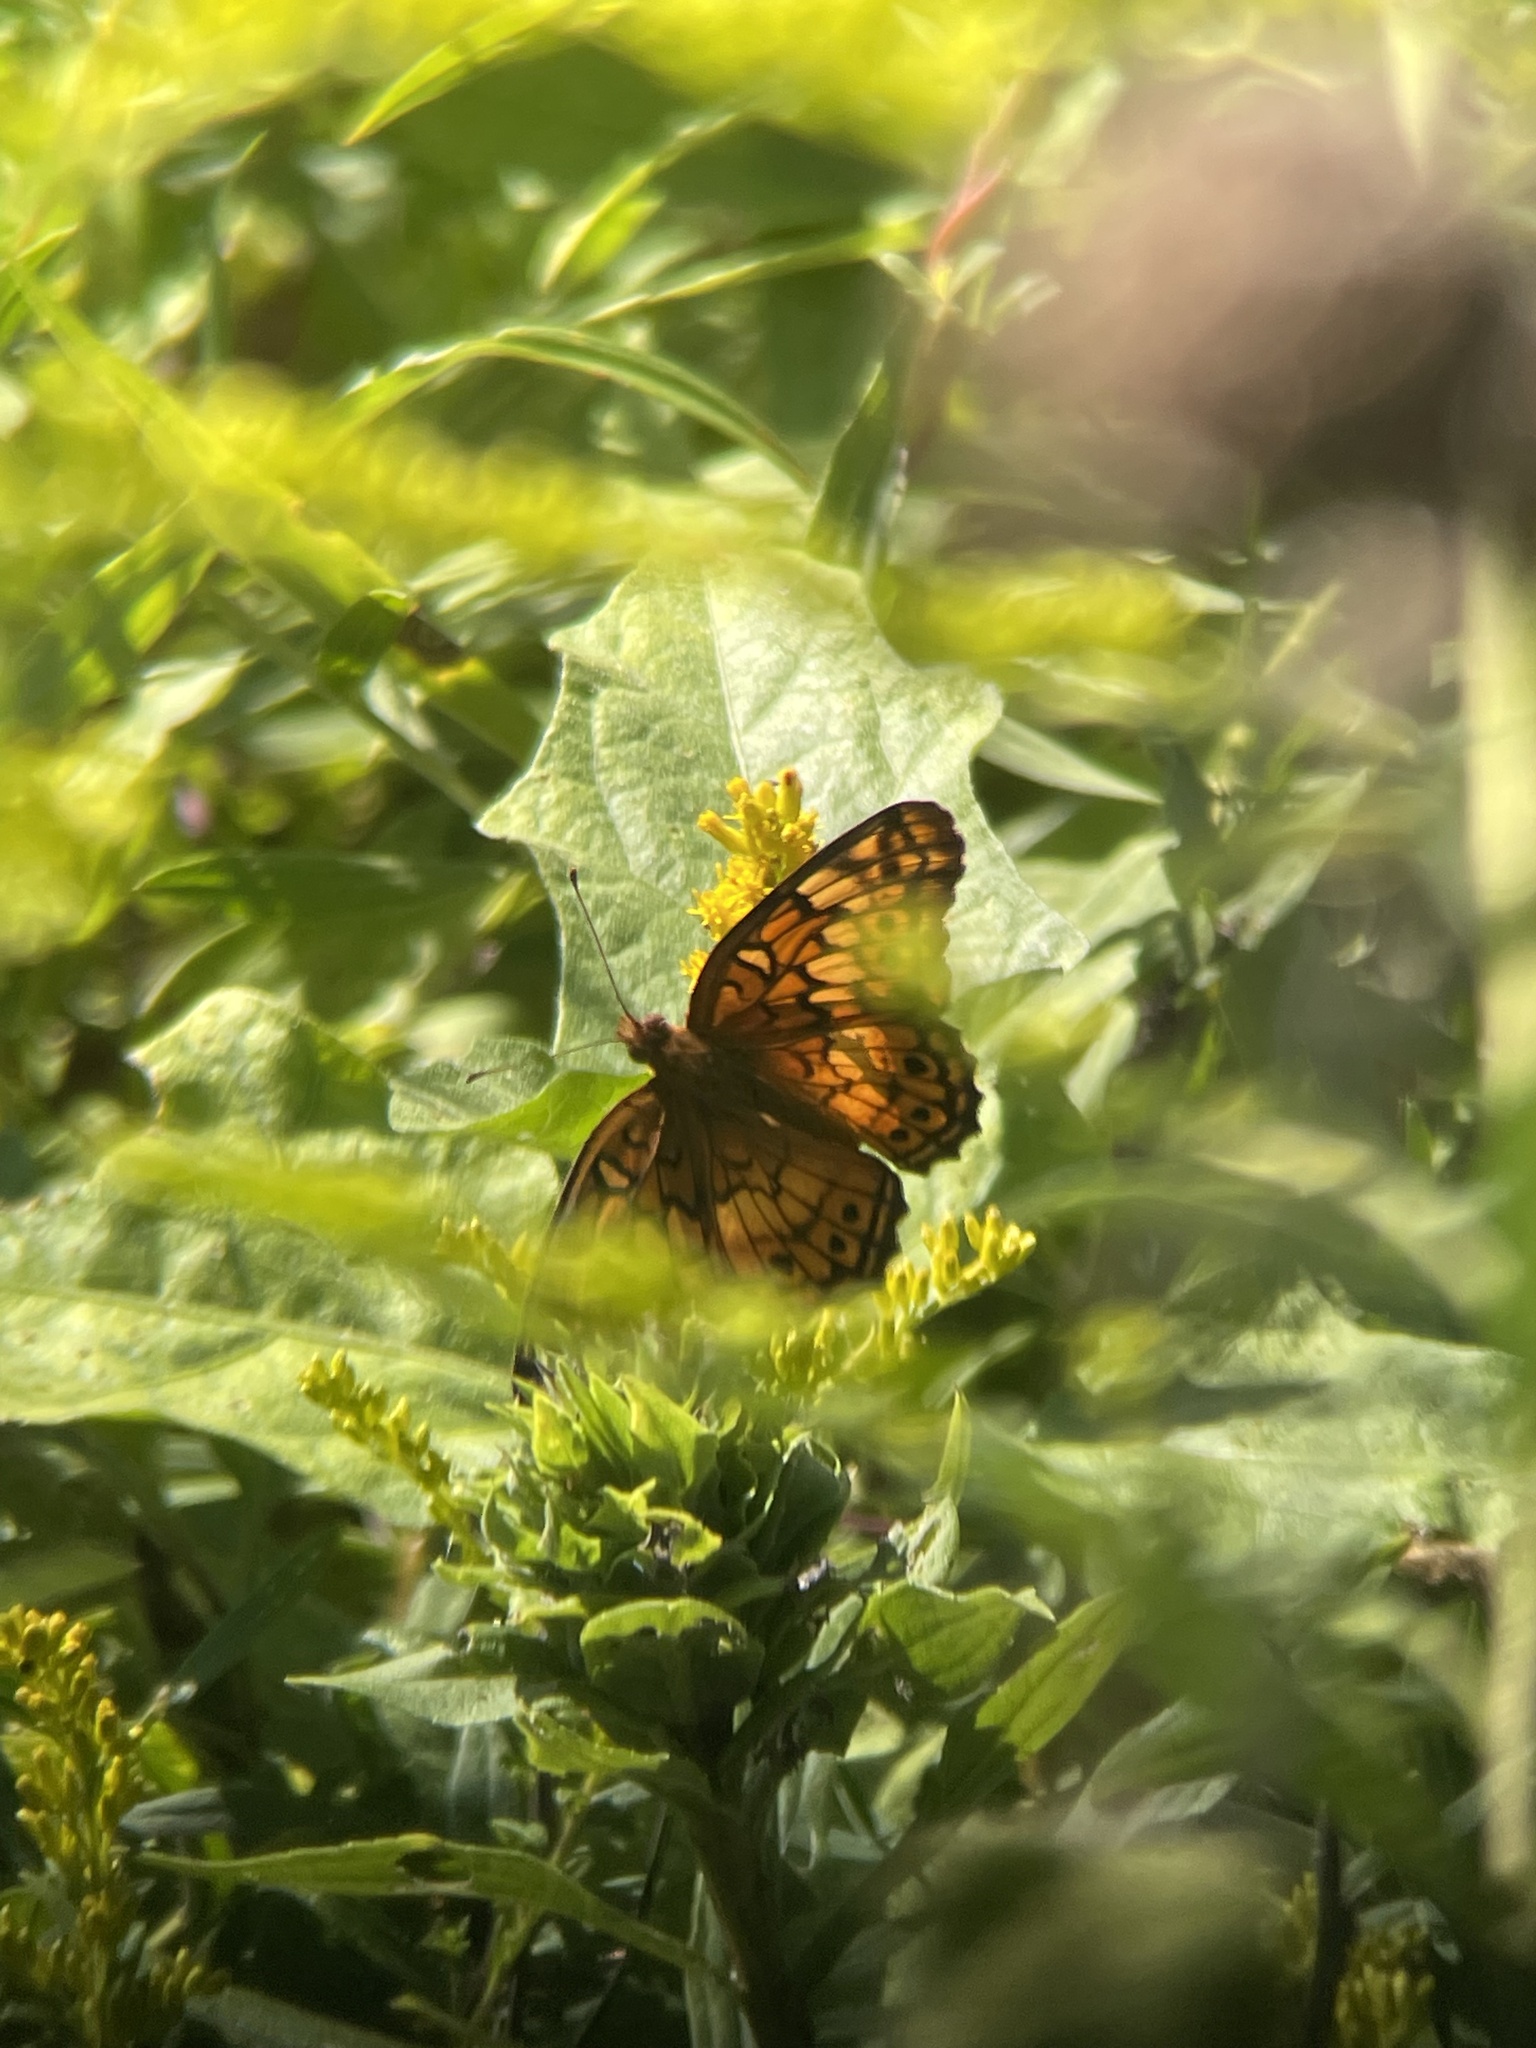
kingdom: Animalia
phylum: Arthropoda
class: Insecta
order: Lepidoptera
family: Nymphalidae
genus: Euptoieta
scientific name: Euptoieta claudia
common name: Variegated fritillary
